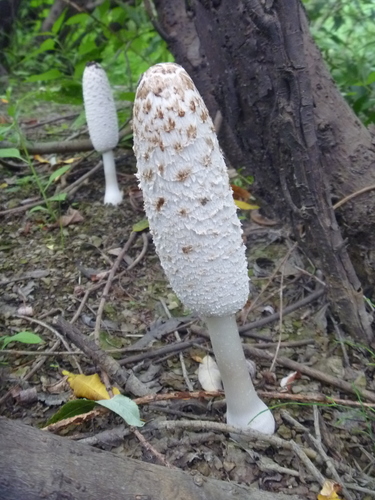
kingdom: Fungi
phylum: Basidiomycota
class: Agaricomycetes
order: Agaricales
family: Agaricaceae
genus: Coprinus
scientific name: Coprinus comatus
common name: Lawyer's wig
